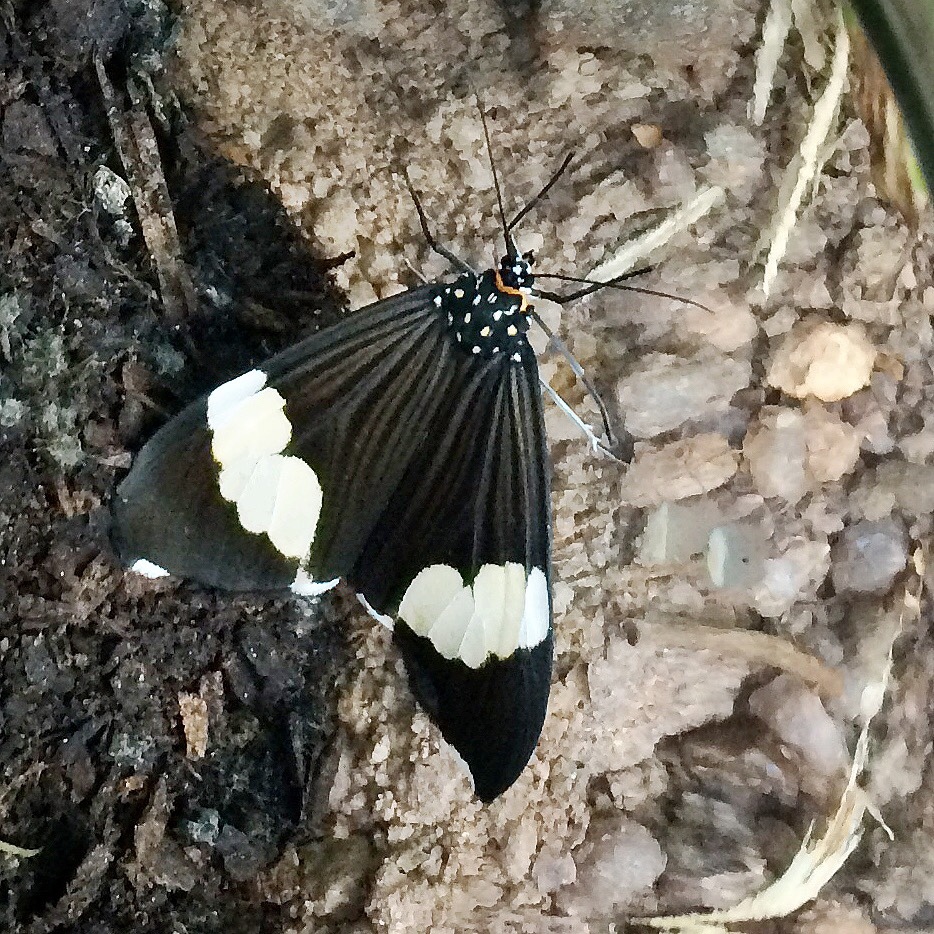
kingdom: Animalia
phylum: Arthropoda
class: Insecta
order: Lepidoptera
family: Erebidae
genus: Nyctemera
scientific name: Nyctemera
